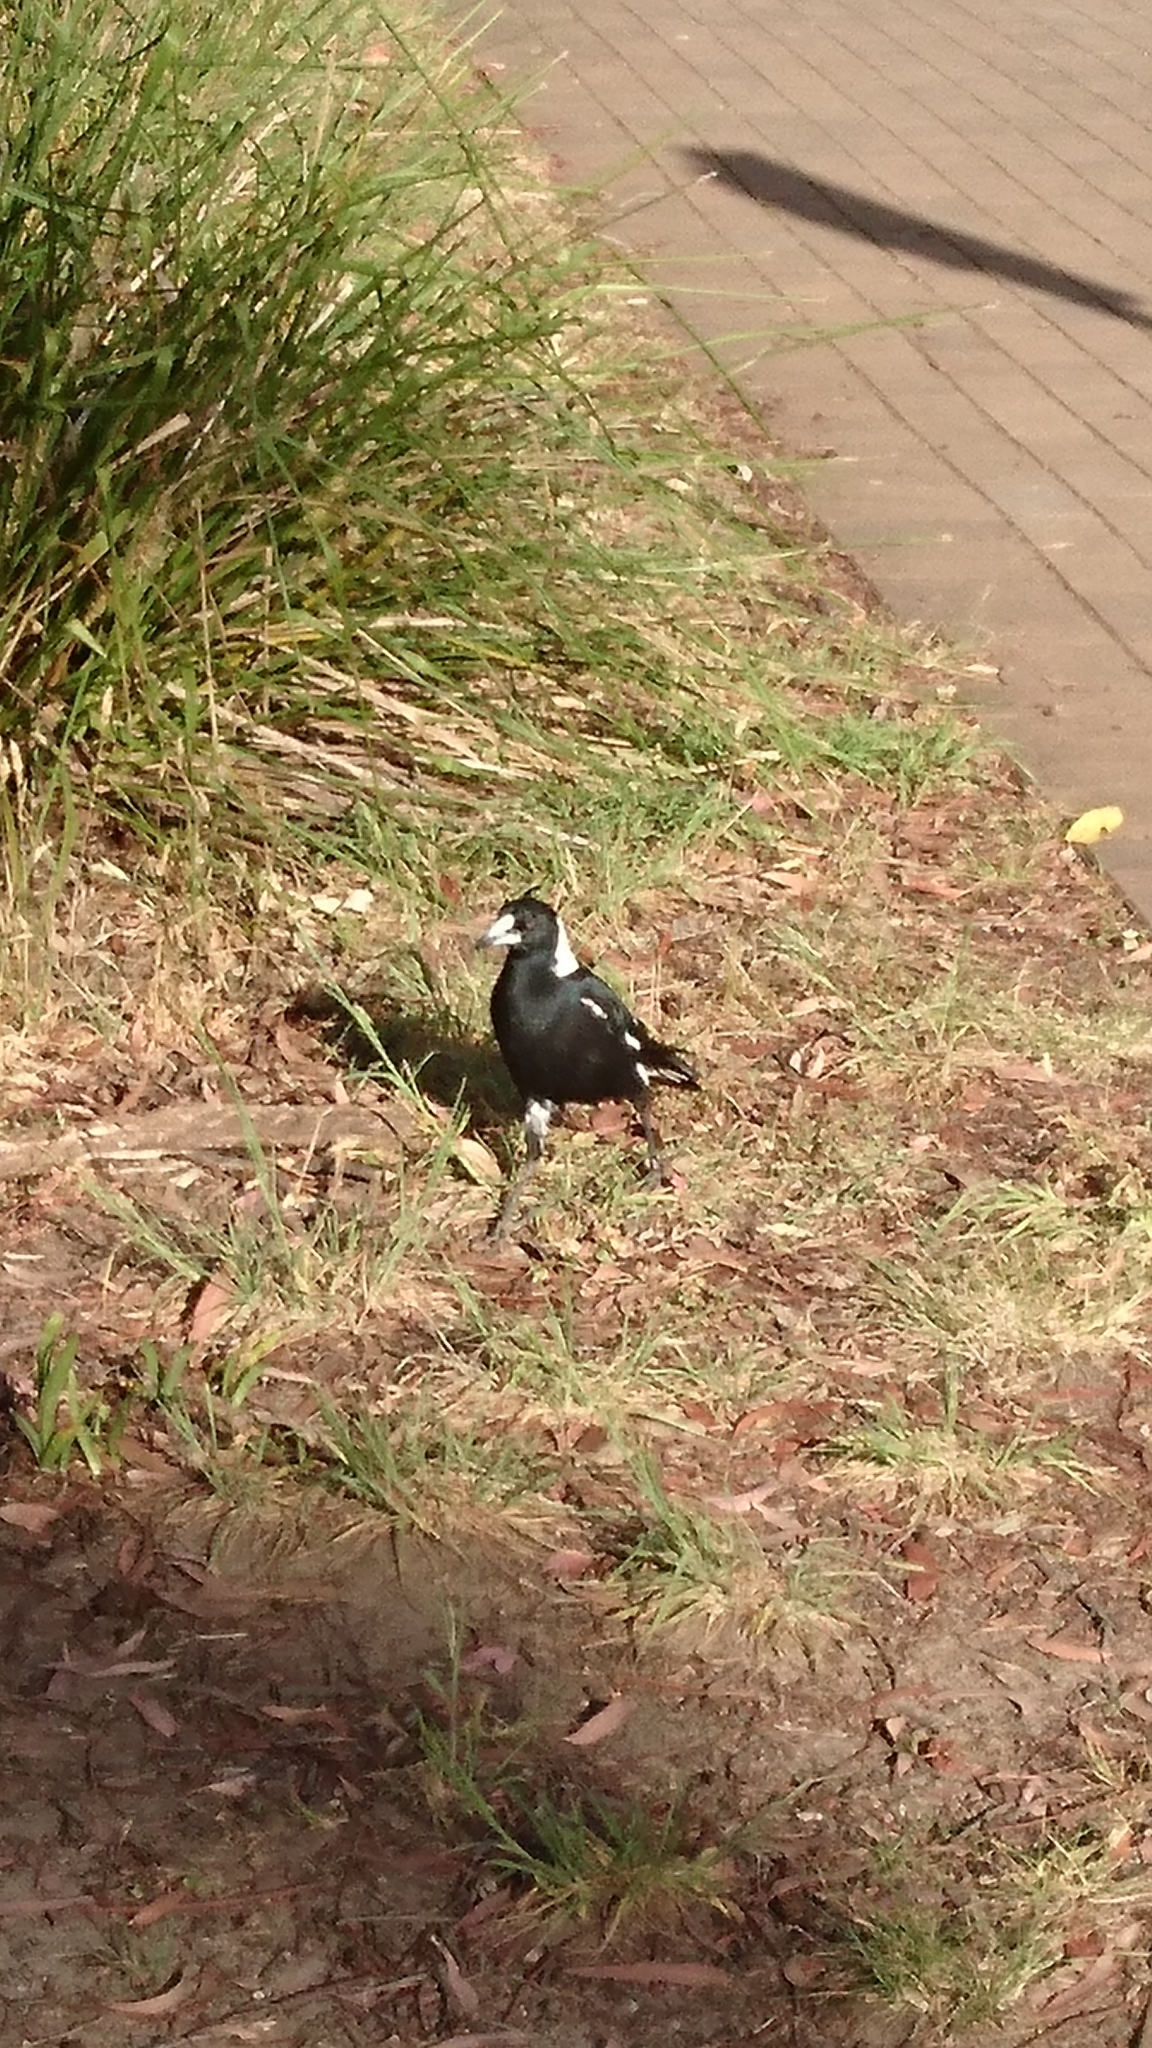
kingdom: Animalia
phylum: Chordata
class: Aves
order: Passeriformes
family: Cracticidae
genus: Gymnorhina
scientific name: Gymnorhina tibicen
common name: Australian magpie
